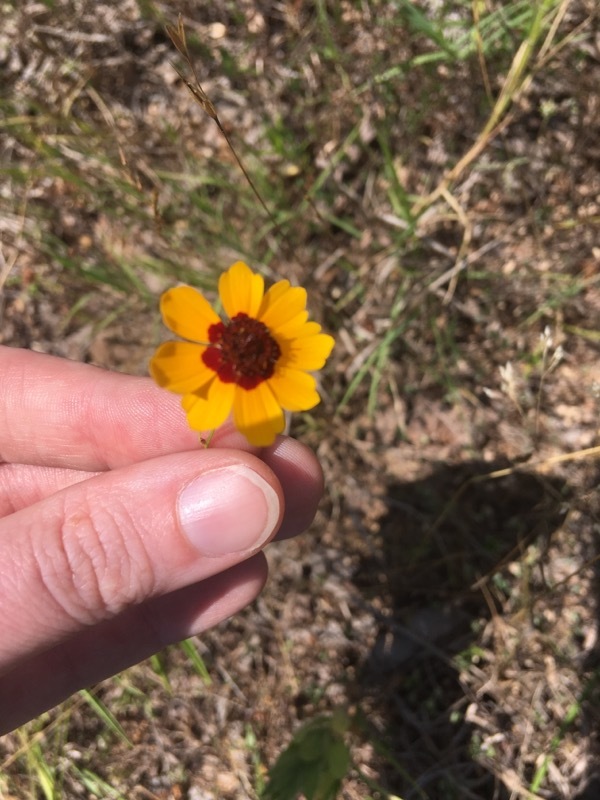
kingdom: Plantae
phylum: Tracheophyta
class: Magnoliopsida
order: Asterales
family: Asteraceae
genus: Coreopsis
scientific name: Coreopsis tinctoria
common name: Garden tickseed
